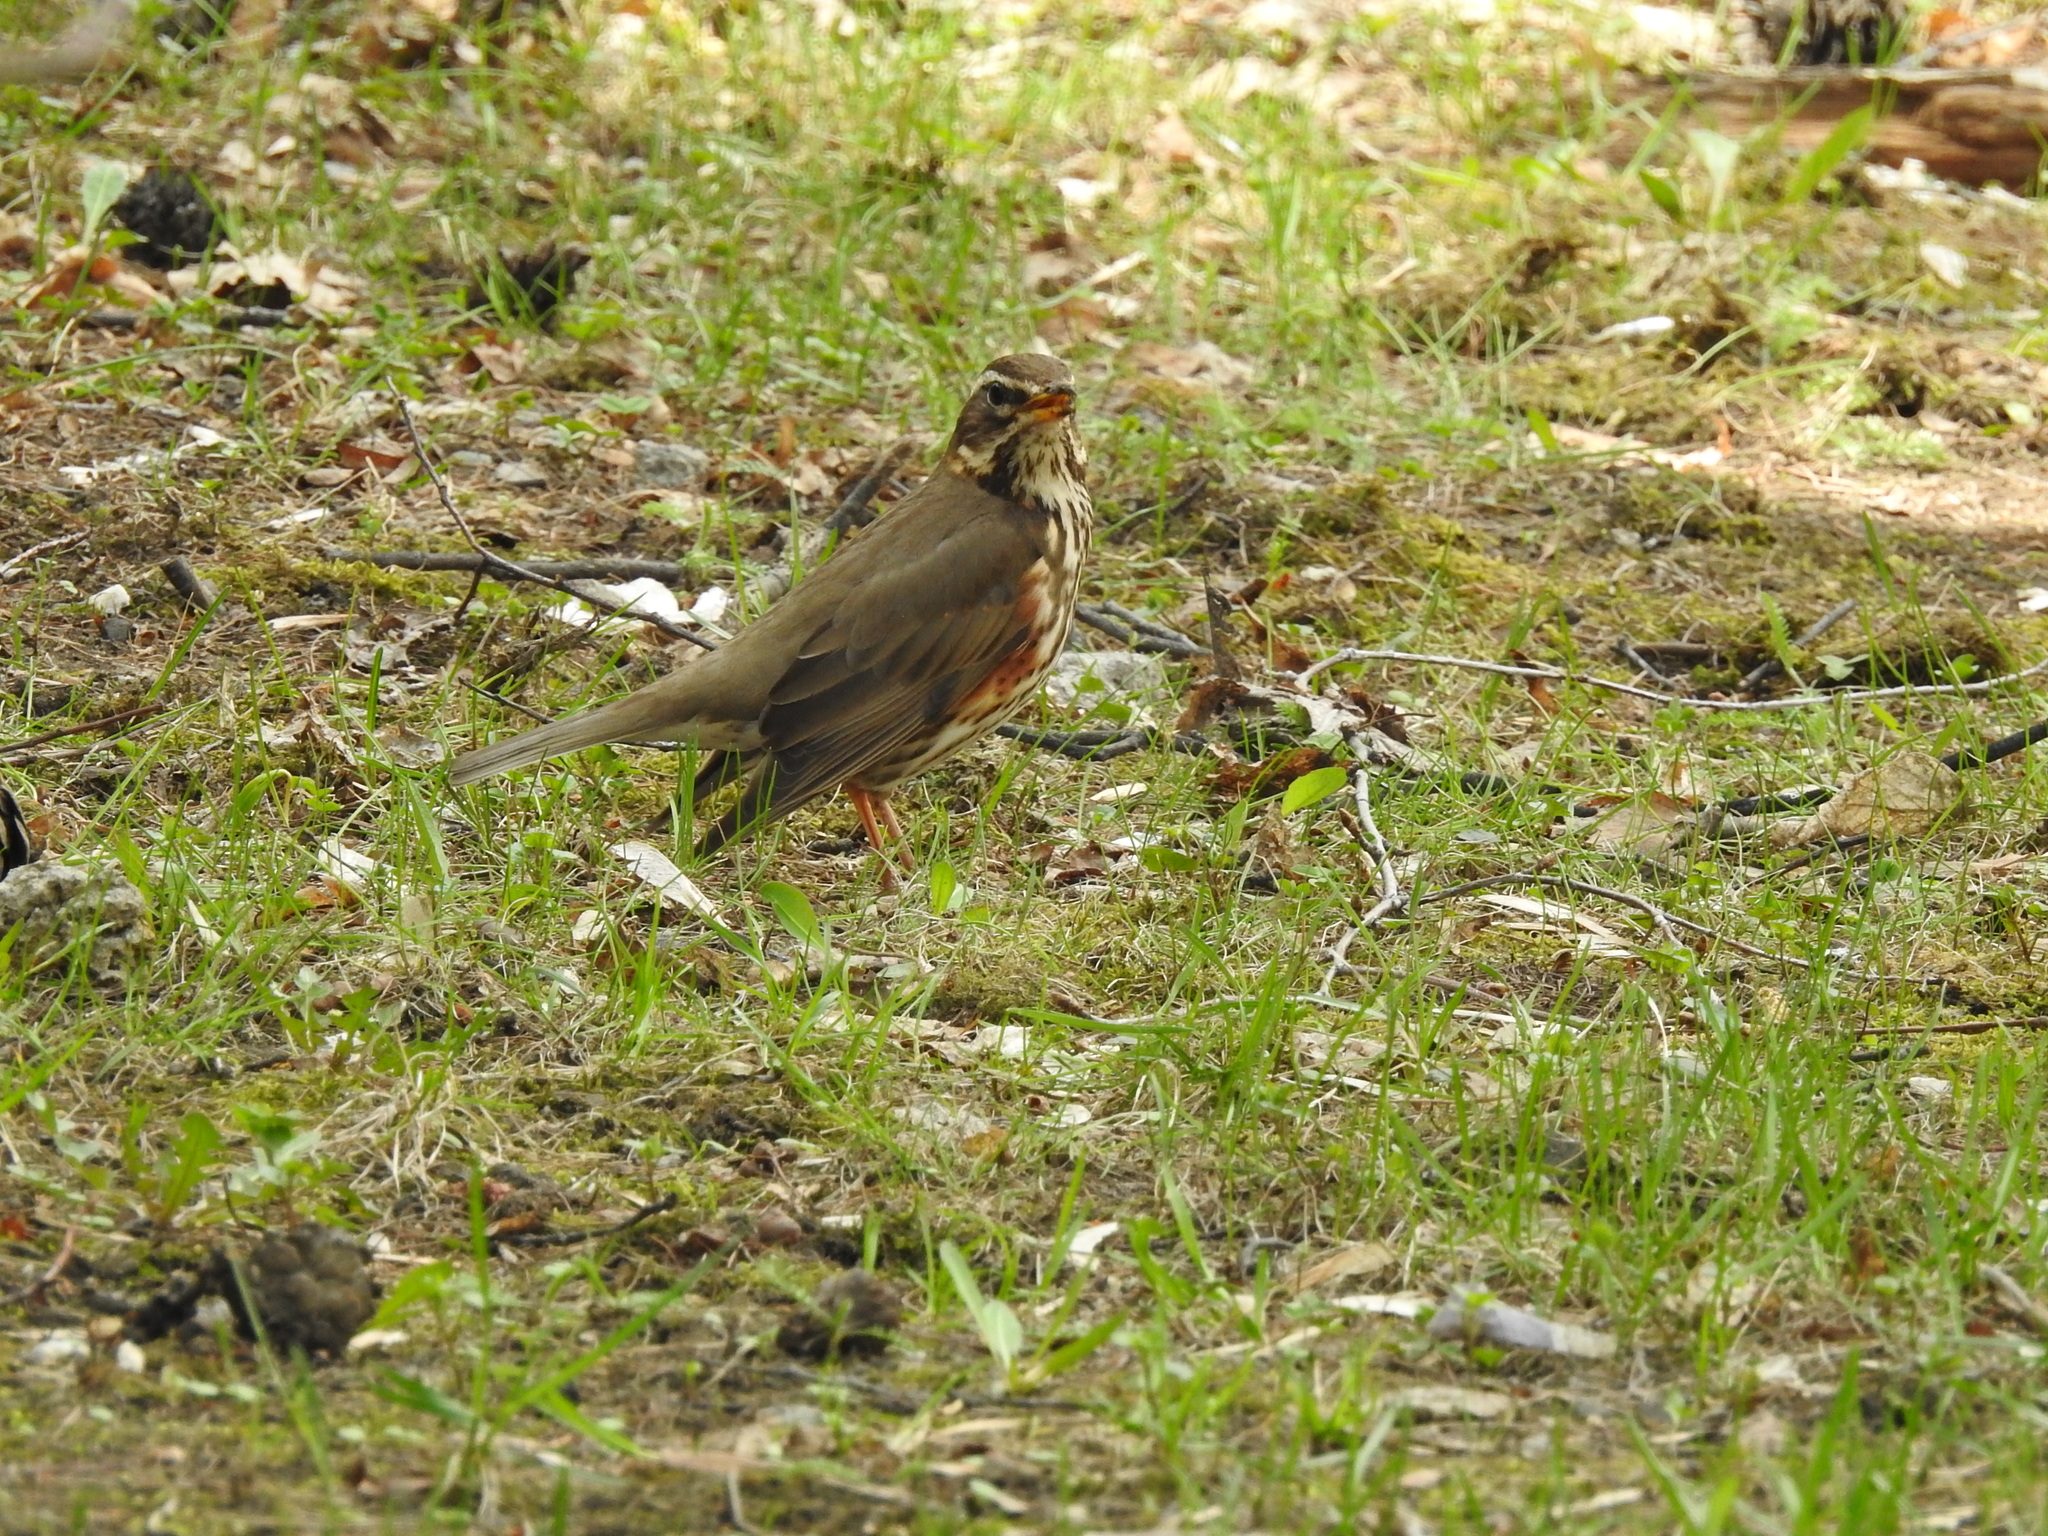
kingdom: Animalia
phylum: Chordata
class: Aves
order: Passeriformes
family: Turdidae
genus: Turdus
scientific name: Turdus iliacus
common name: Redwing
